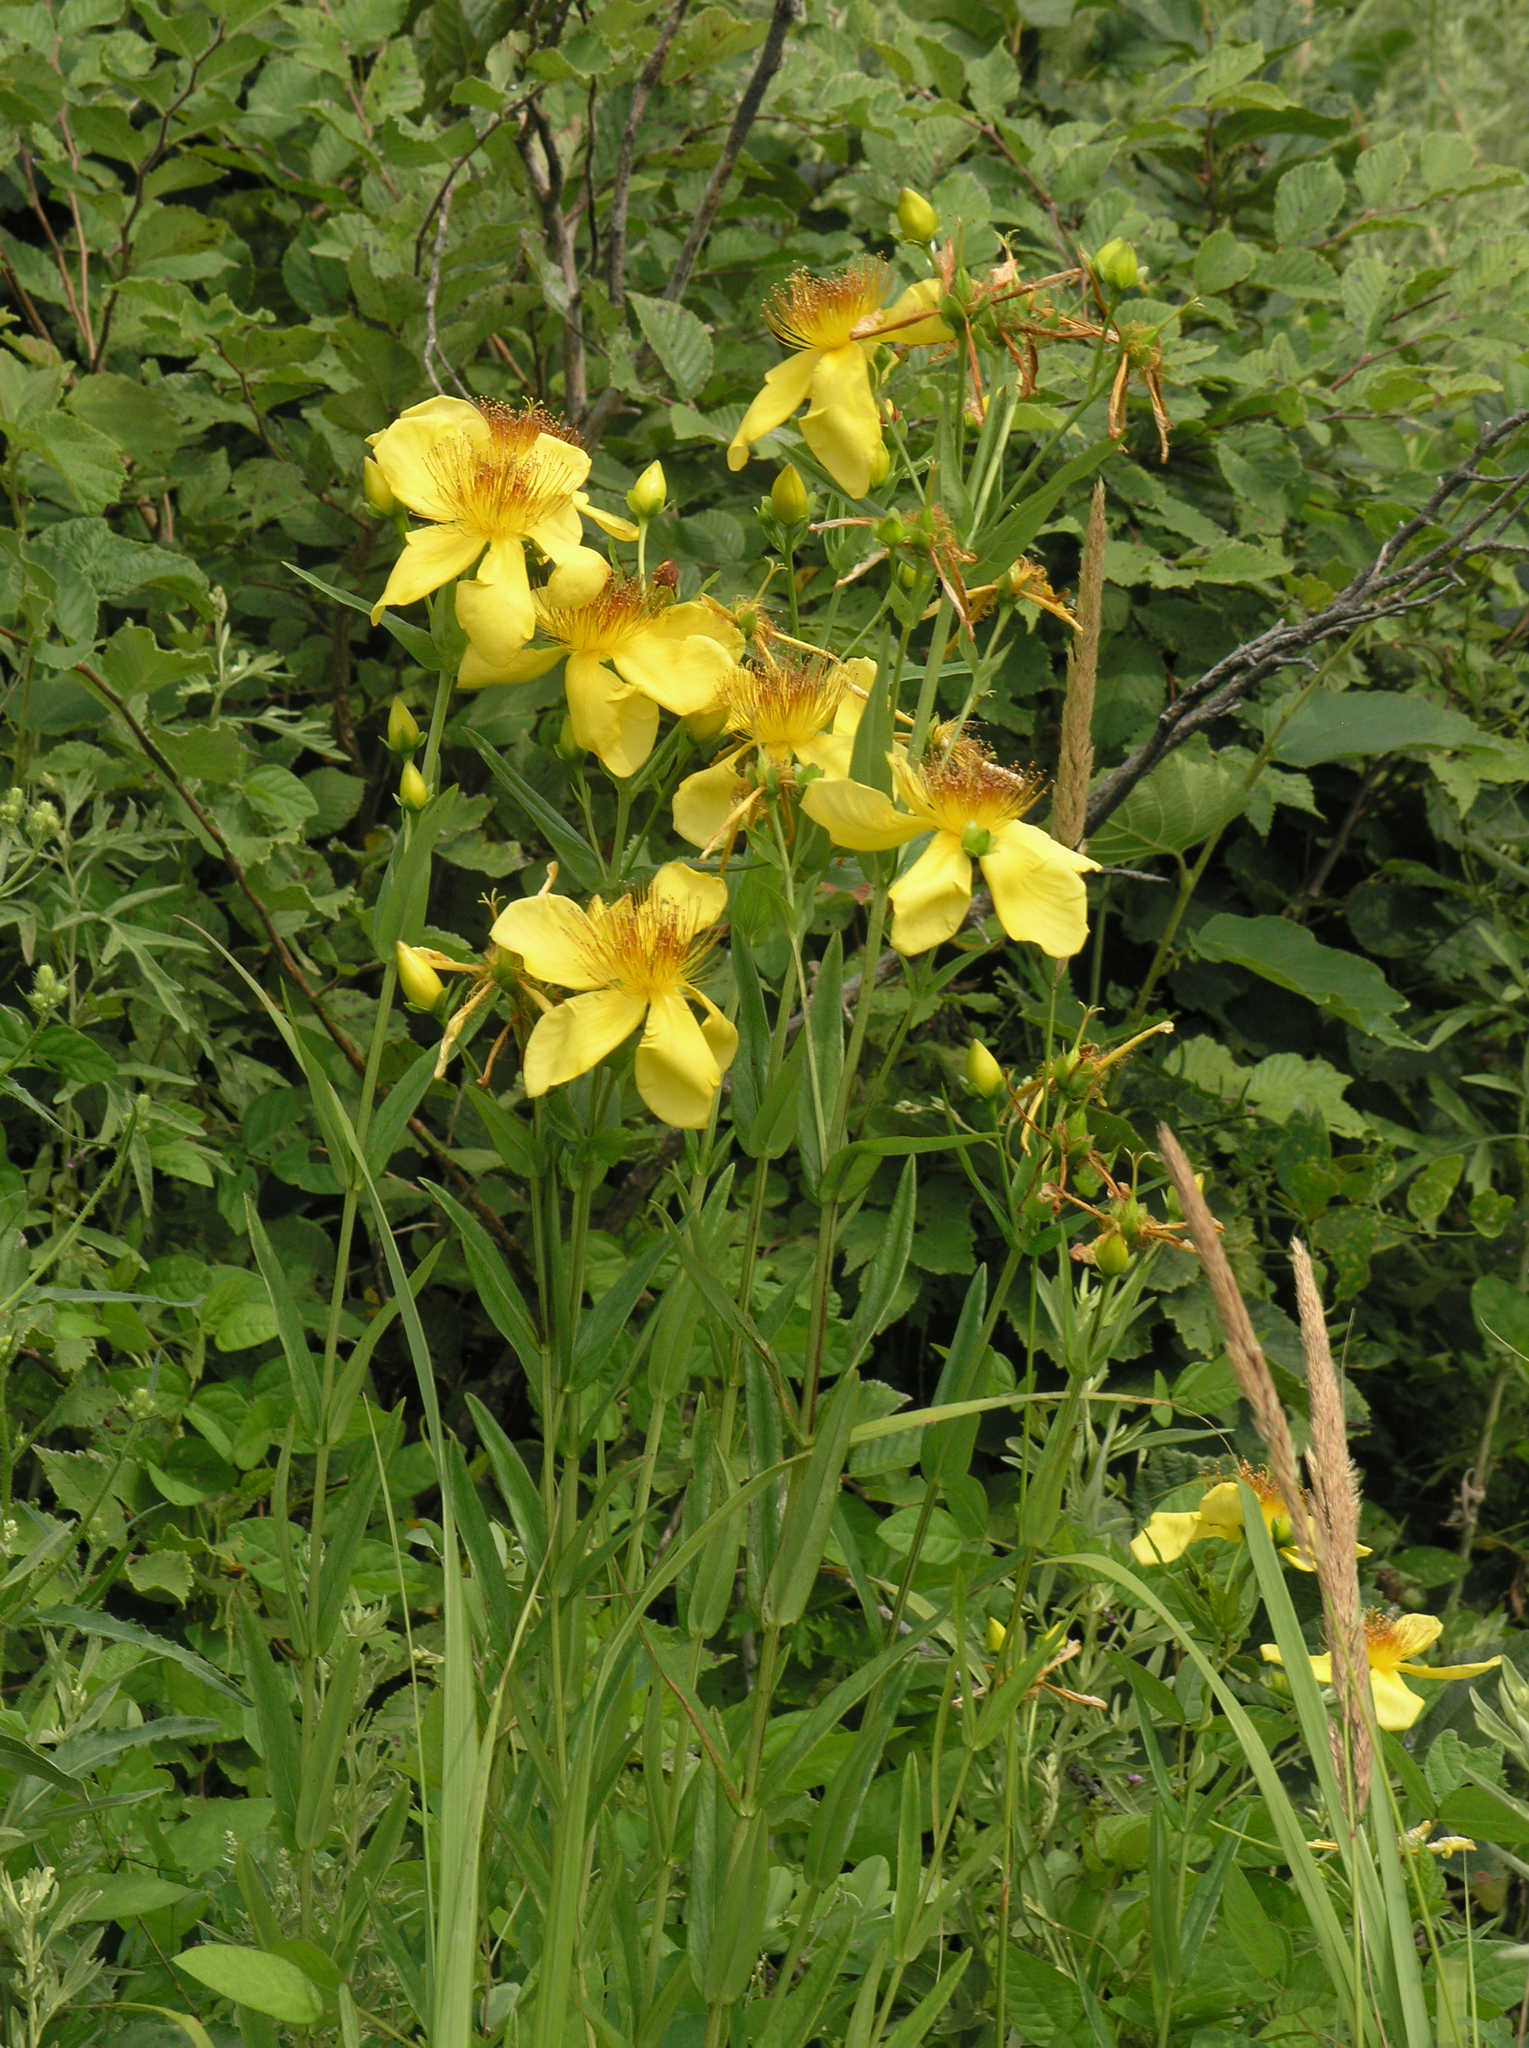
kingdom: Plantae
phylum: Tracheophyta
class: Magnoliopsida
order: Malpighiales
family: Hypericaceae
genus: Hypericum
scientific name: Hypericum ascyron
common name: Giant st. john's-wort
